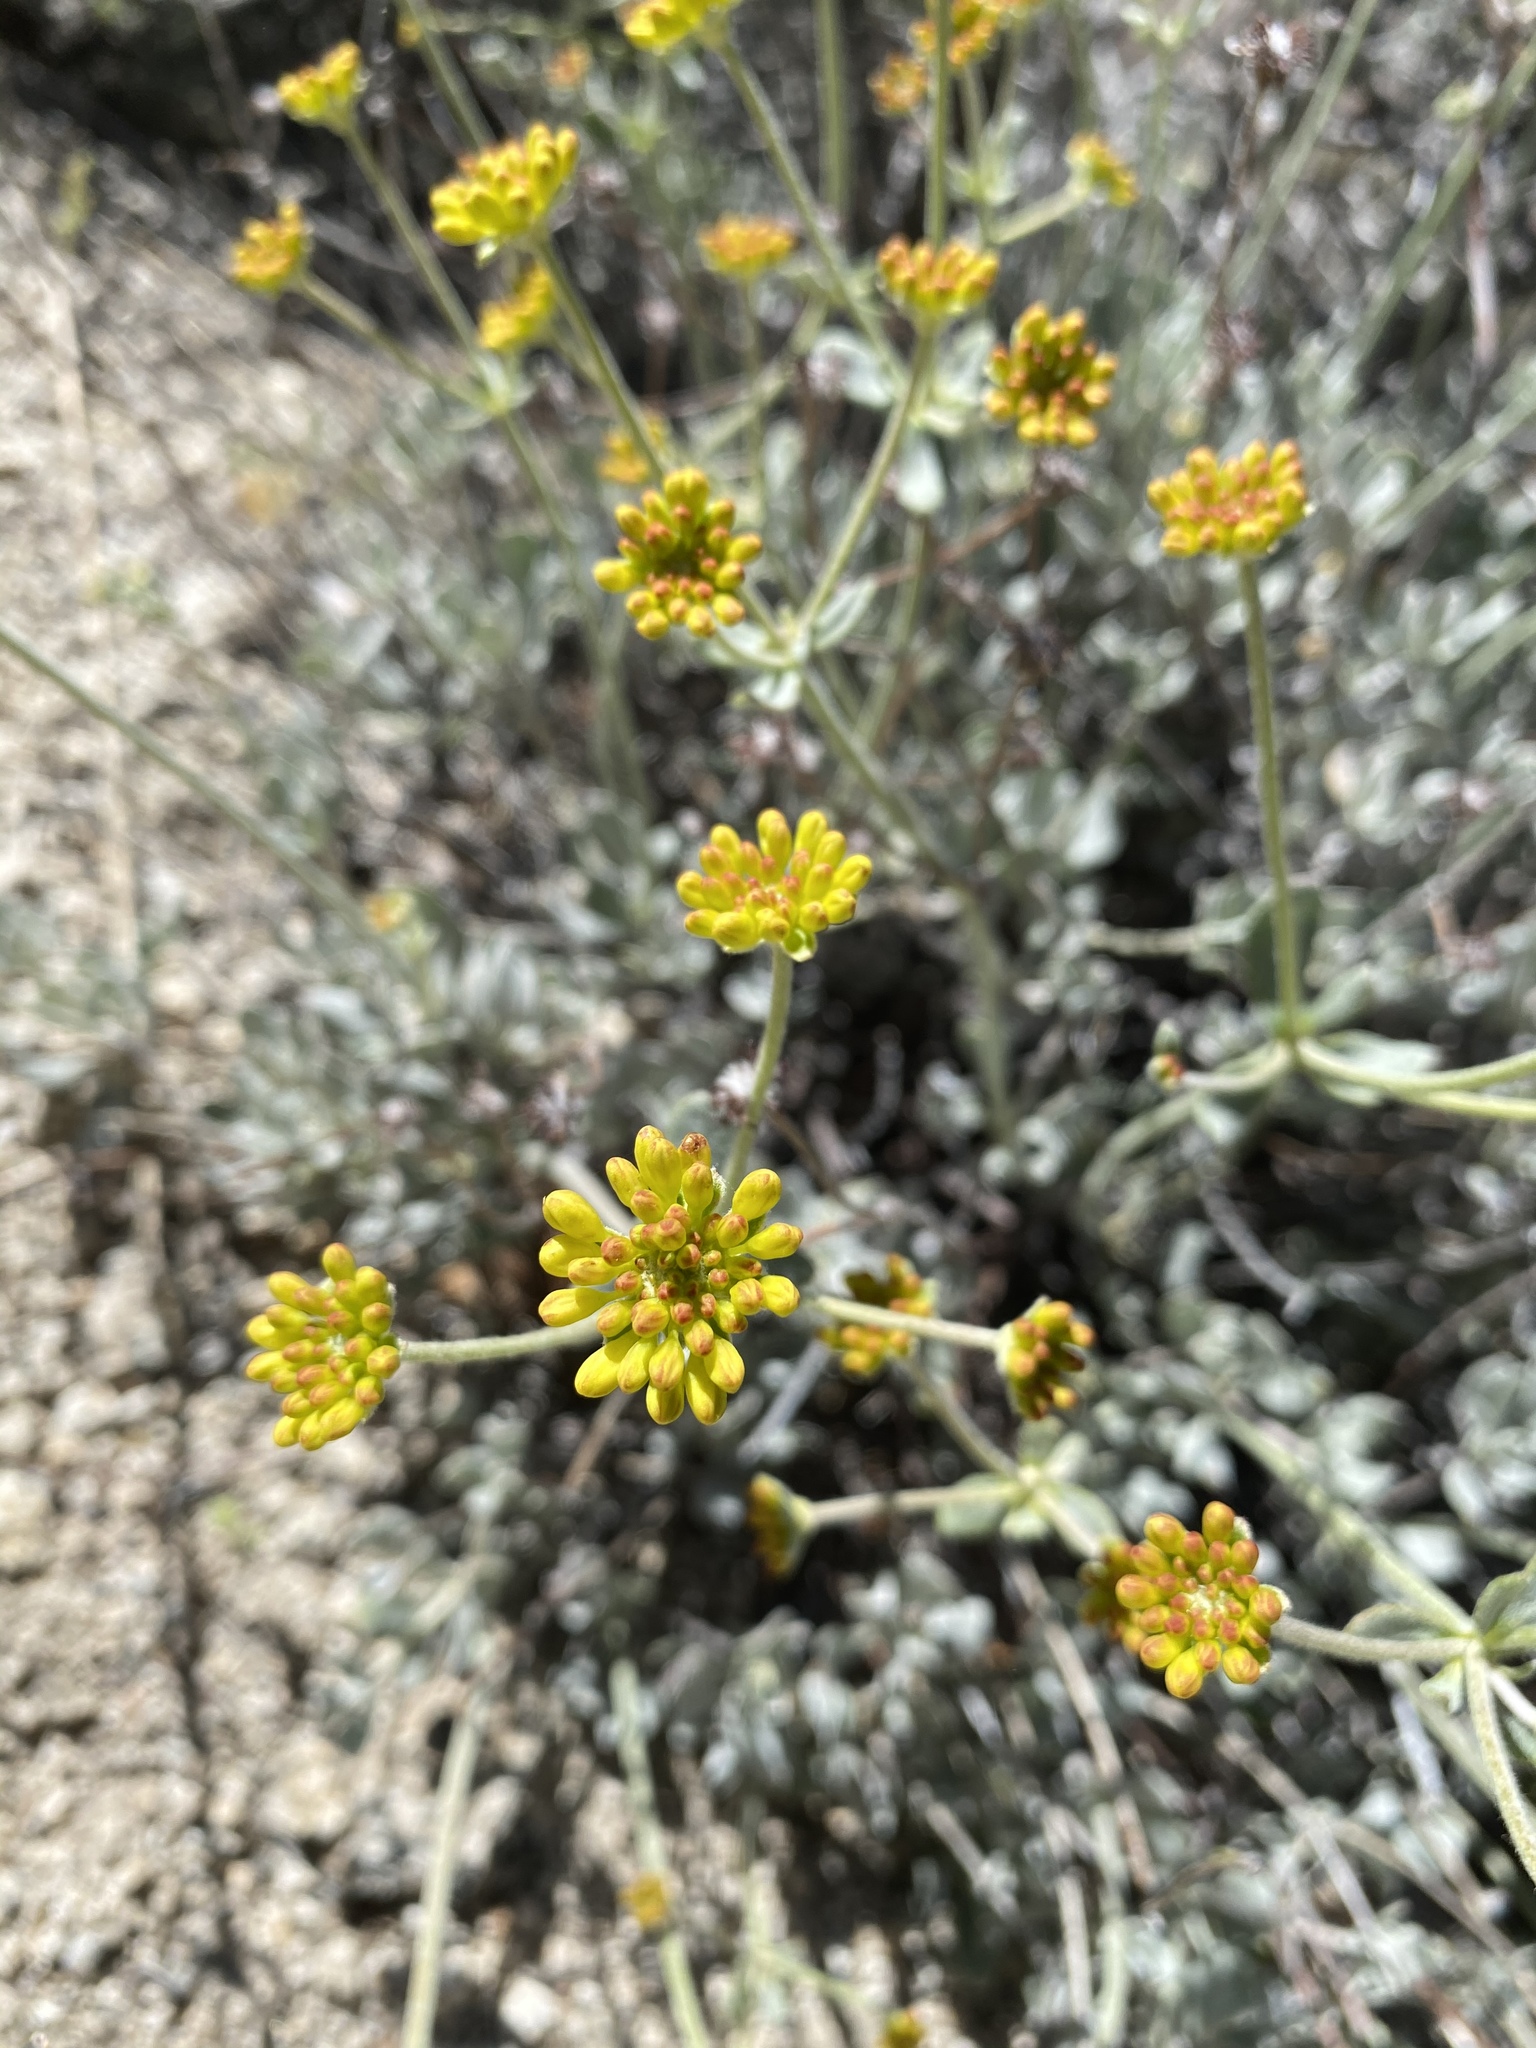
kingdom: Plantae
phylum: Tracheophyta
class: Magnoliopsida
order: Caryophyllales
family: Polygonaceae
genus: Eriogonum
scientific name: Eriogonum umbellatum
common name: Sulfur-buckwheat
